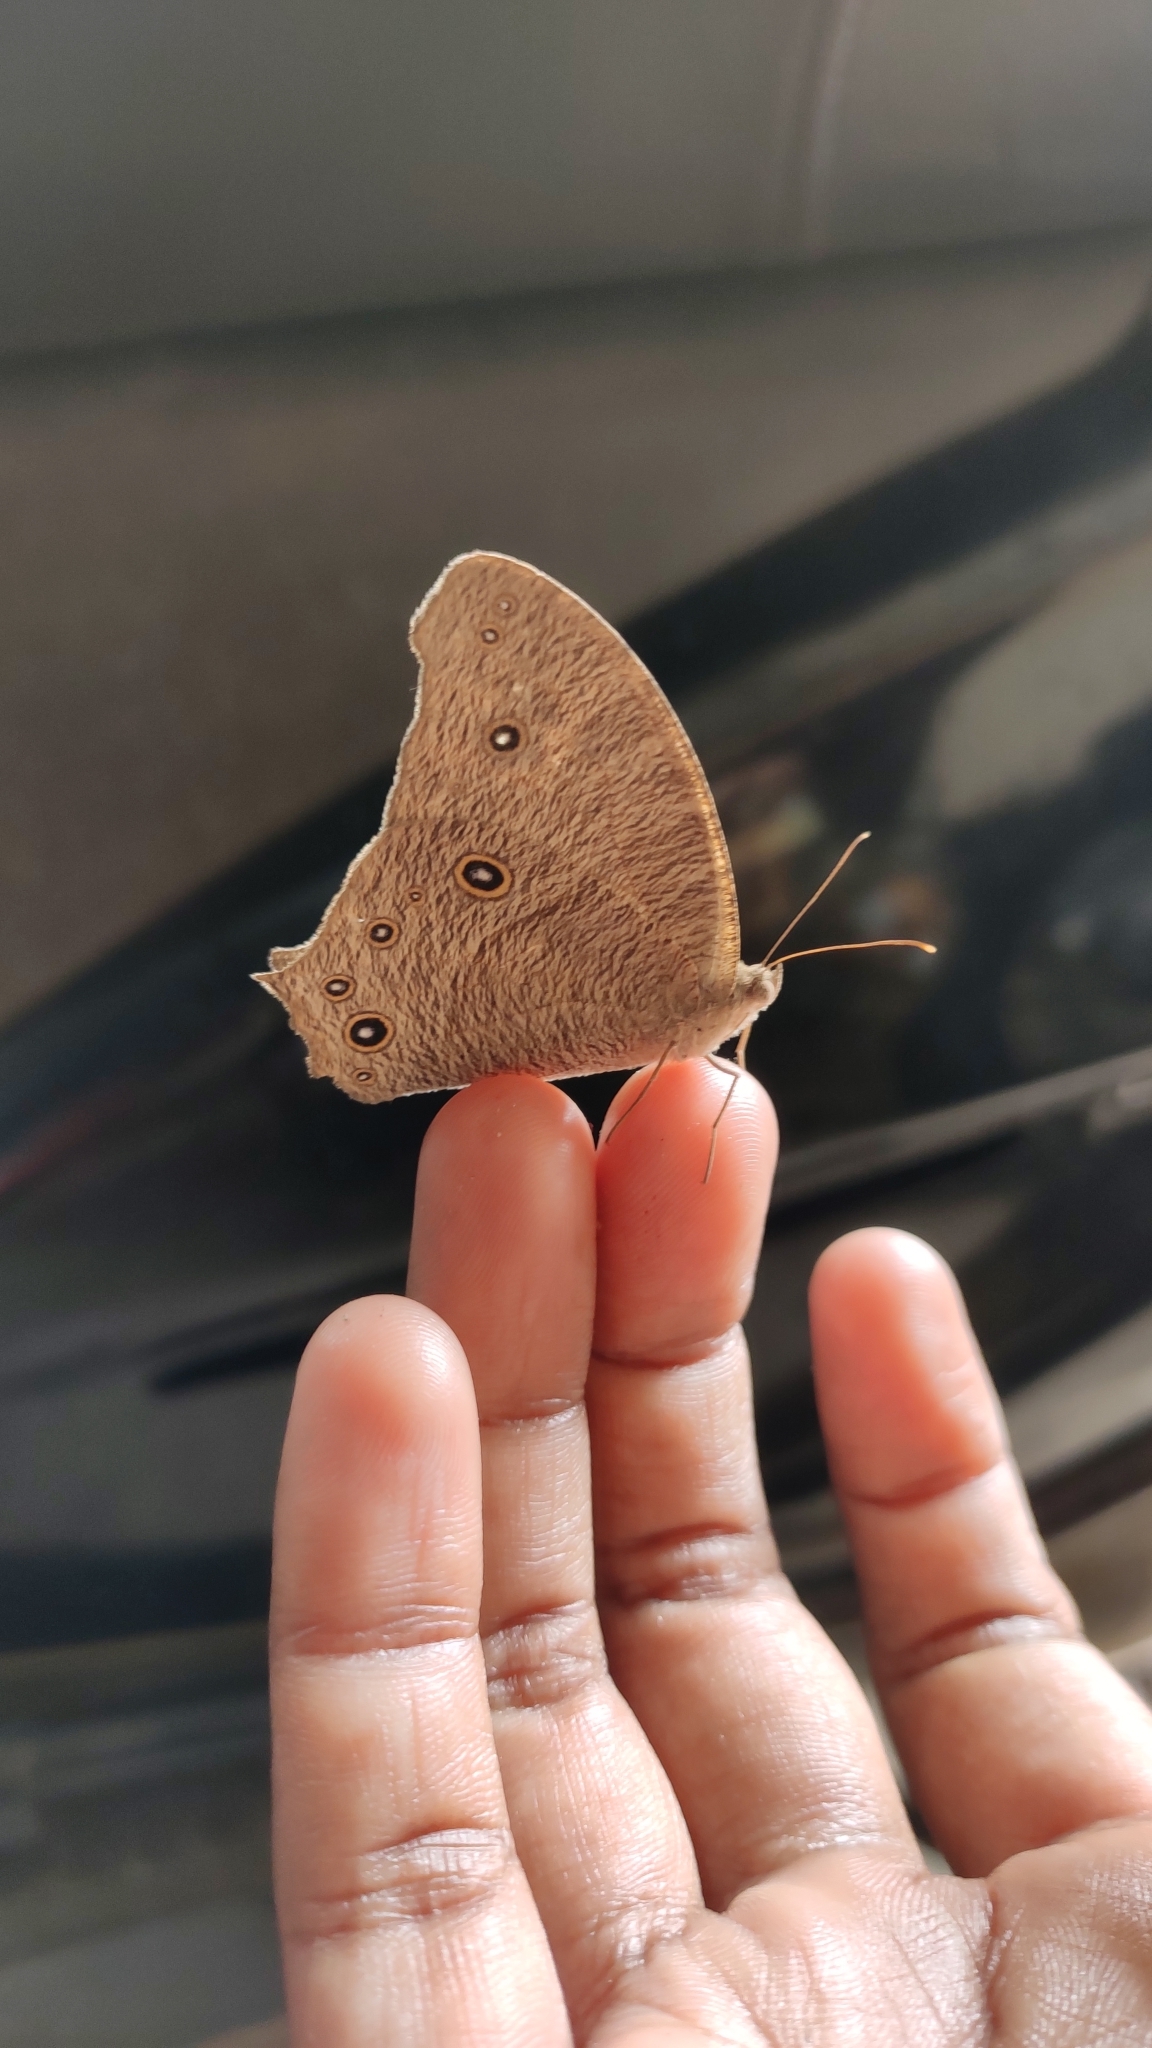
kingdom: Animalia
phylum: Arthropoda
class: Insecta
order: Lepidoptera
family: Nymphalidae
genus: Melanitis
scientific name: Melanitis leda
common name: Twilight brown
